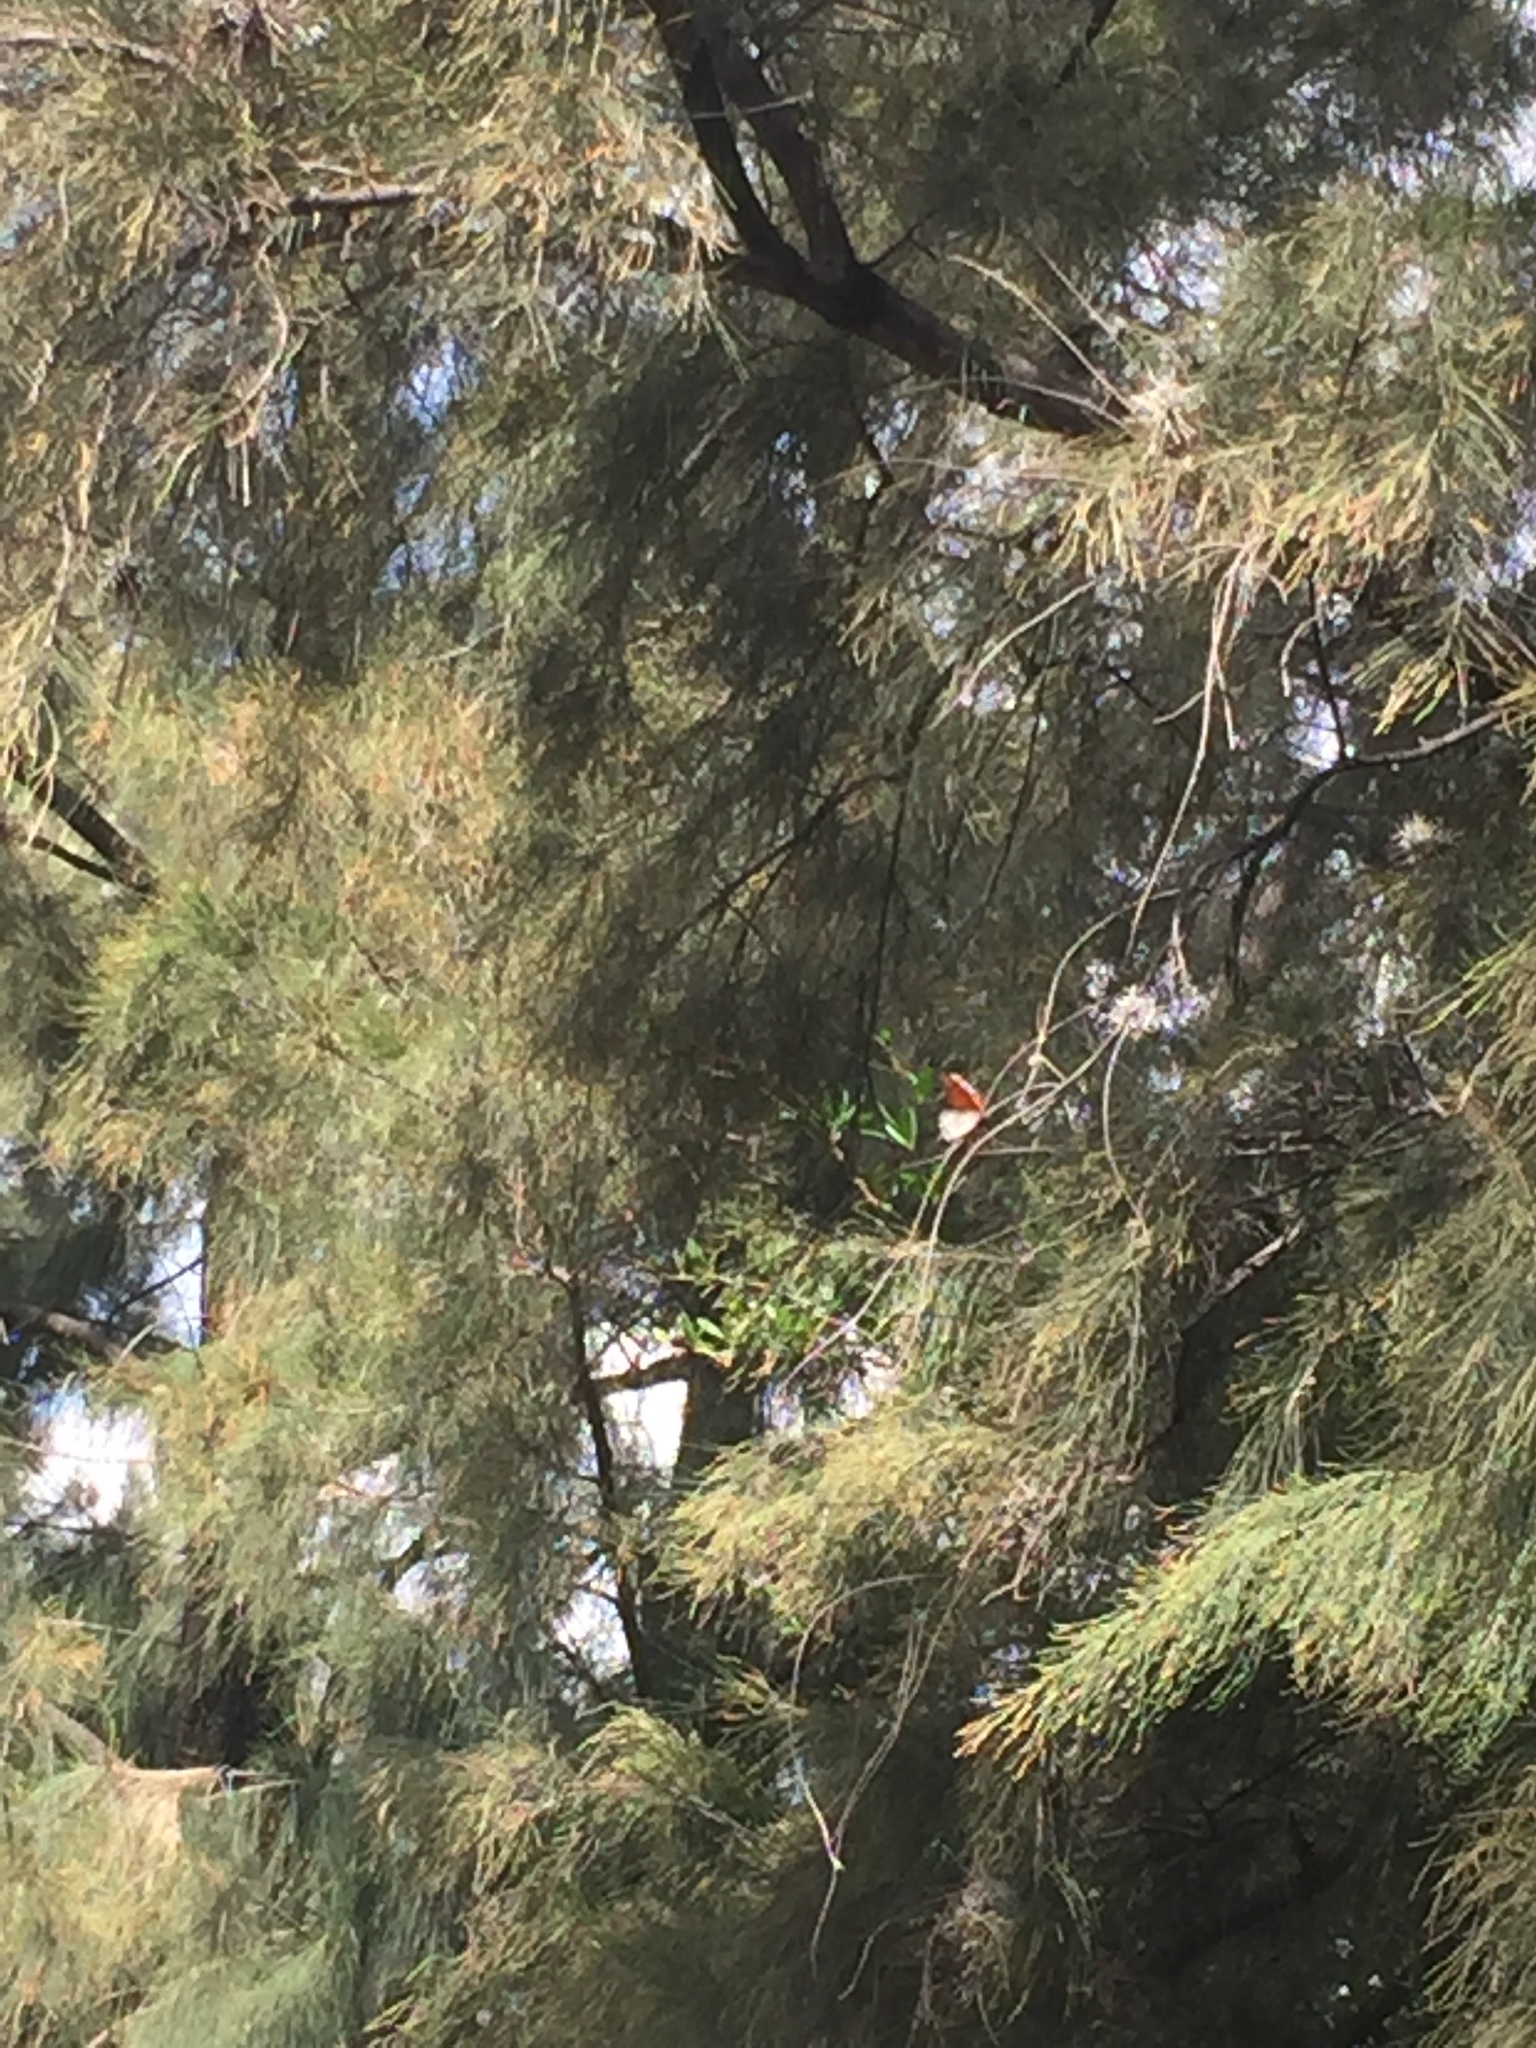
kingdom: Animalia
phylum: Arthropoda
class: Insecta
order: Lepidoptera
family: Nymphalidae
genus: Danaus
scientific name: Danaus plexippus
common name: Monarch
